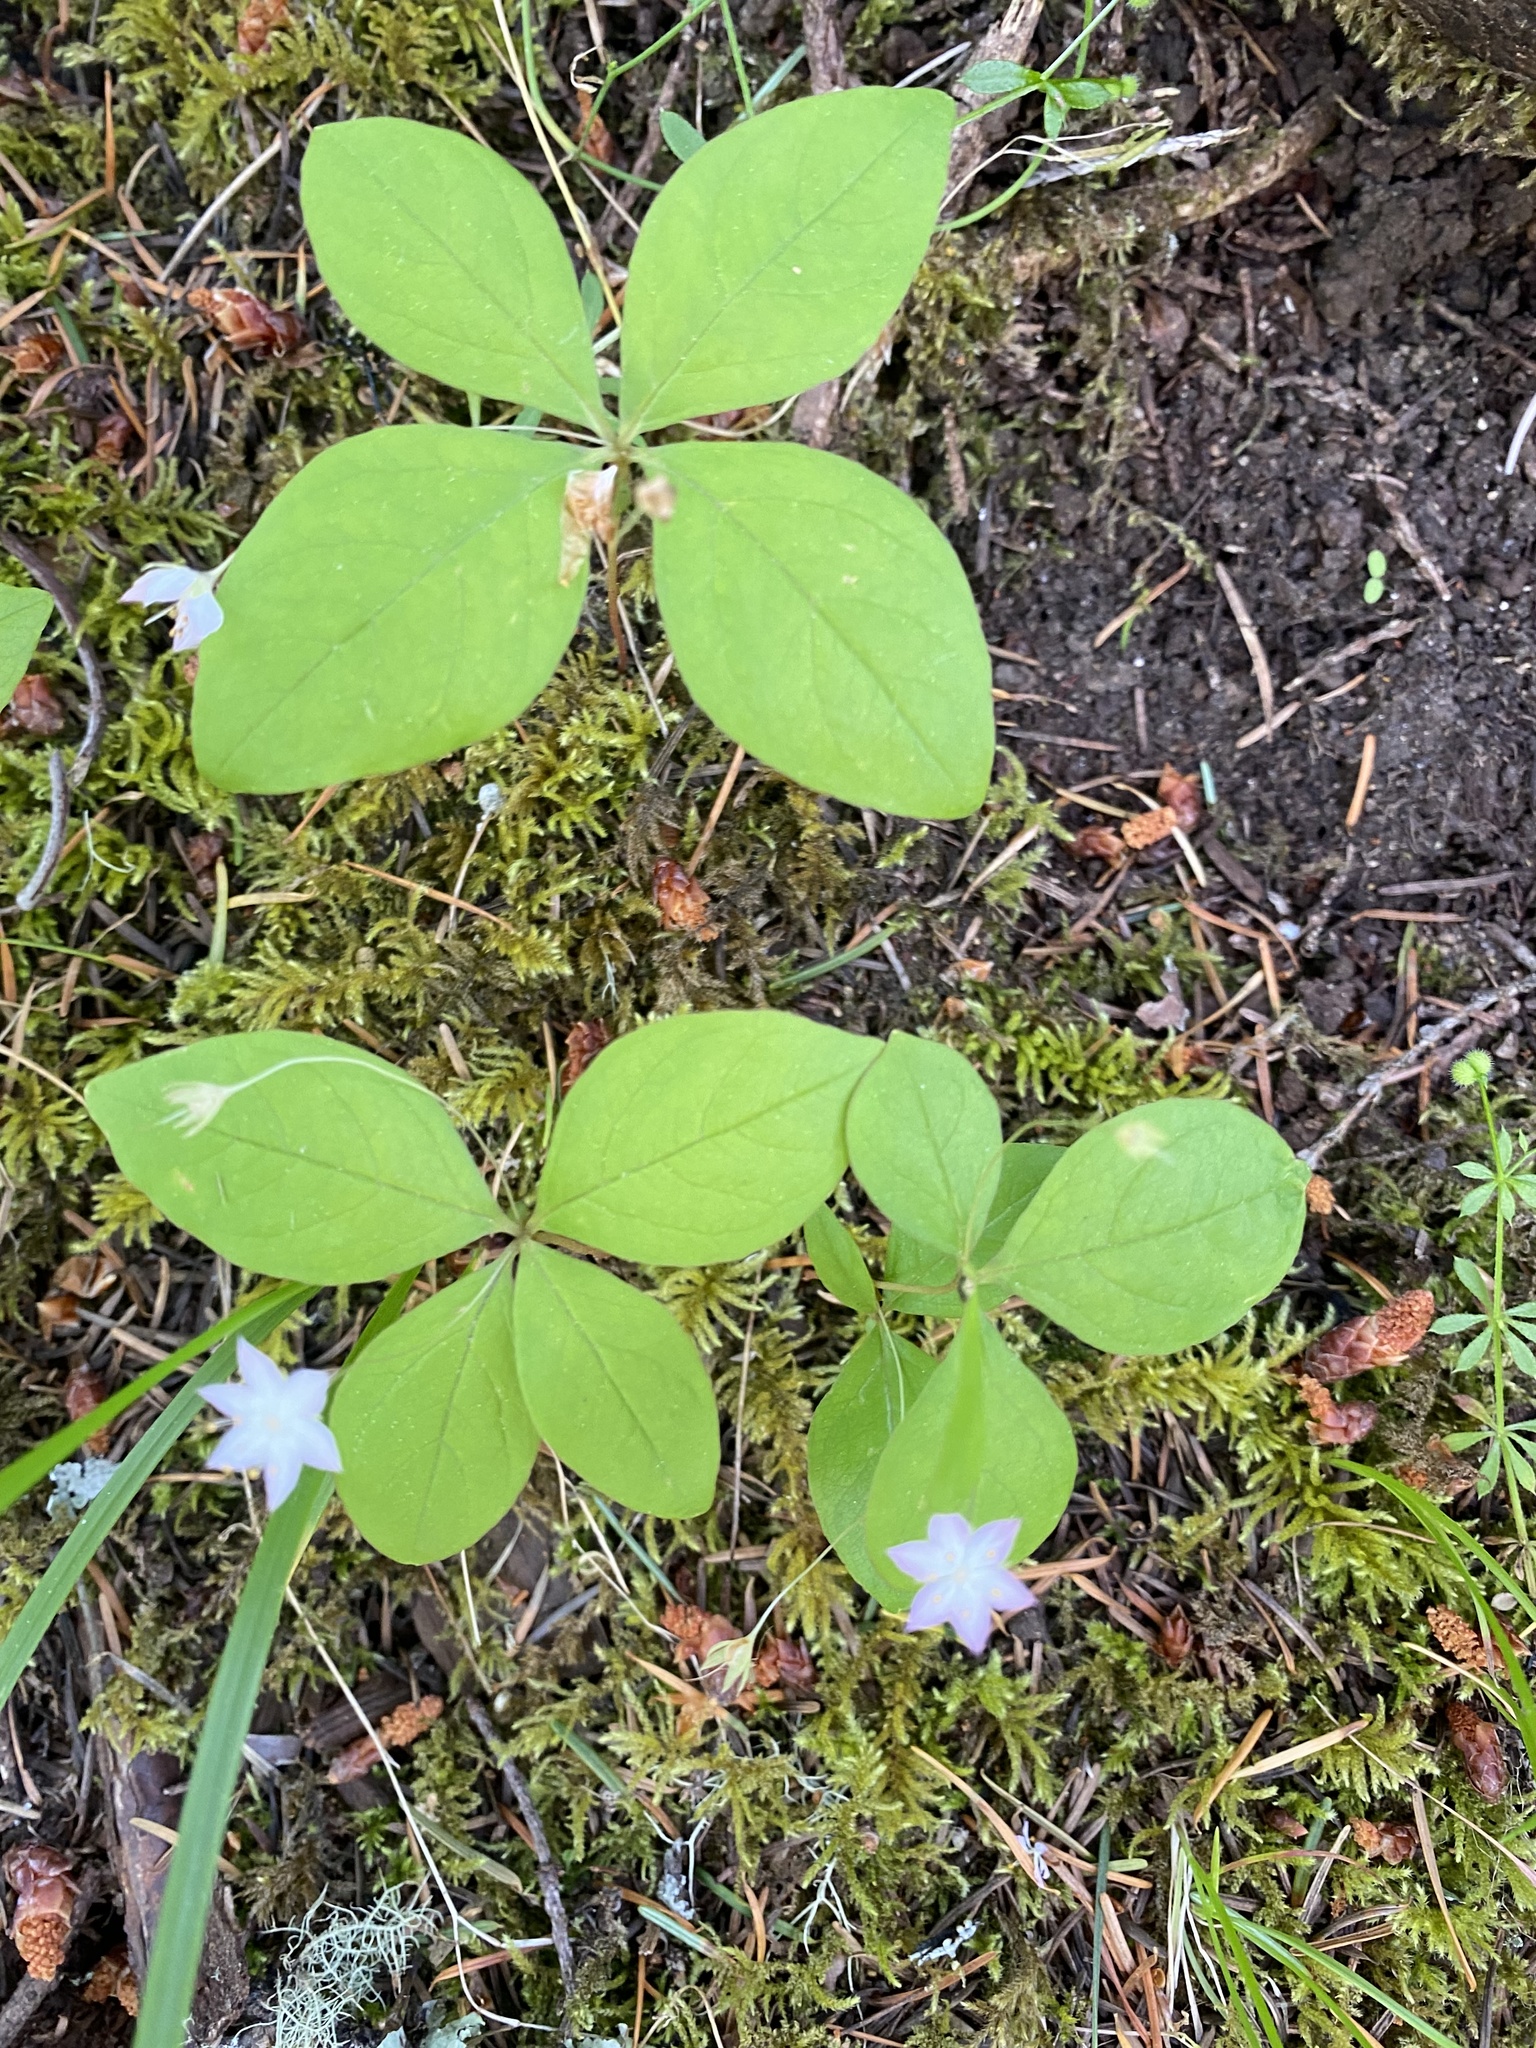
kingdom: Plantae
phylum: Tracheophyta
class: Magnoliopsida
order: Ericales
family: Primulaceae
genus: Lysimachia
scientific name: Lysimachia latifolia
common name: Pacific starflower
